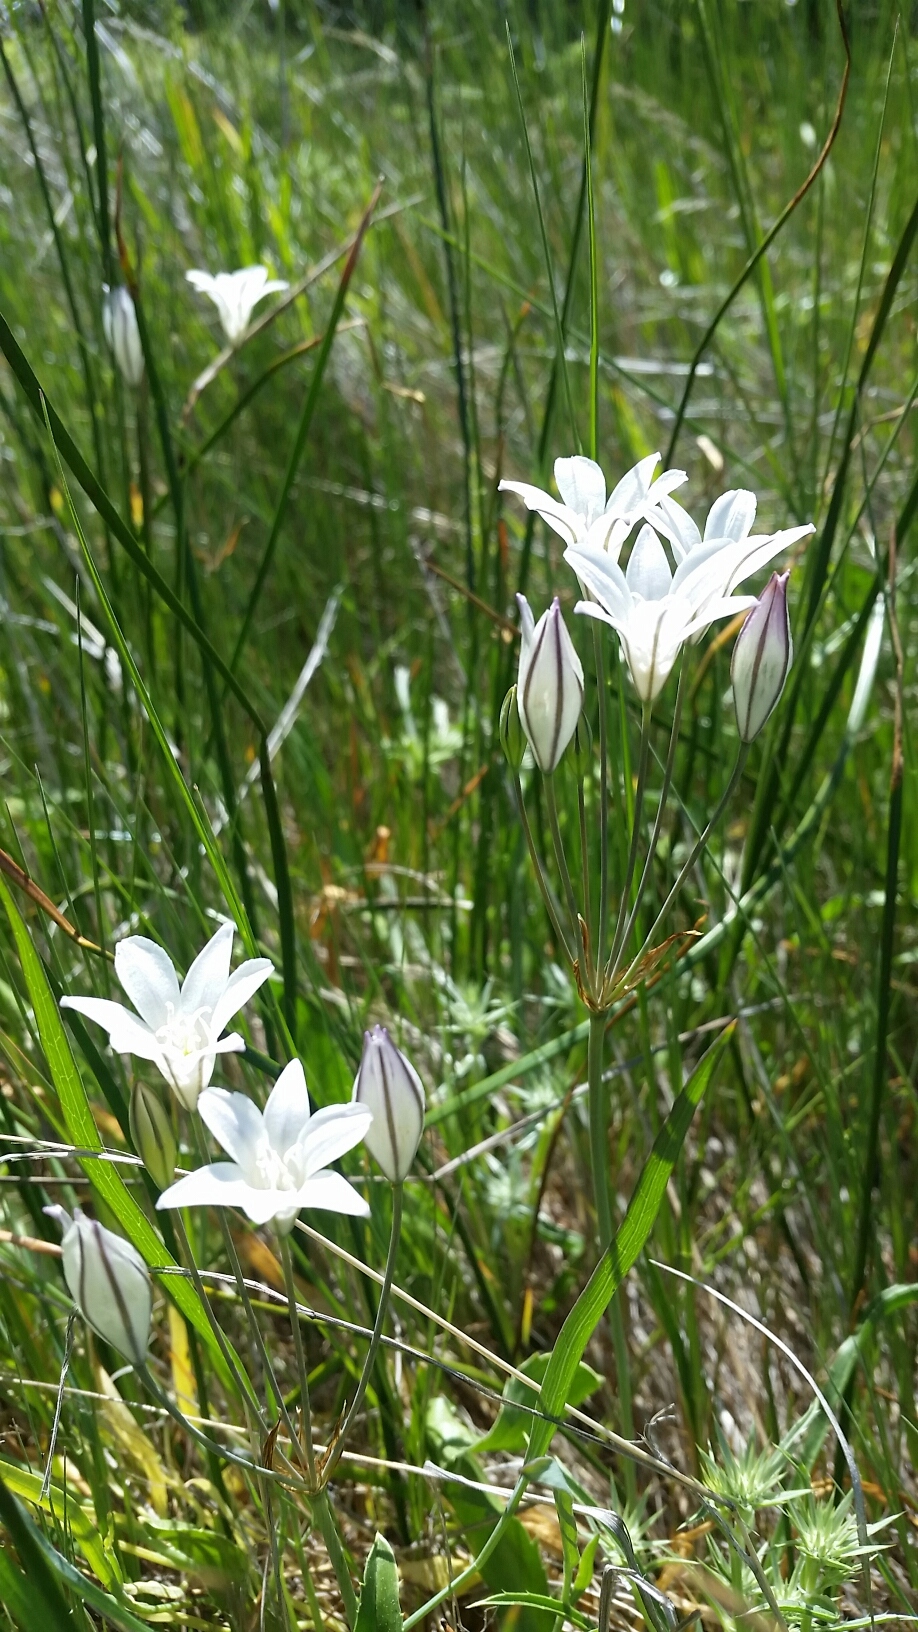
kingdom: Plantae
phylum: Tracheophyta
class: Liliopsida
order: Asparagales
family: Asparagaceae
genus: Triteleia
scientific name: Triteleia peduncularis
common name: Long-ray brodiaea
